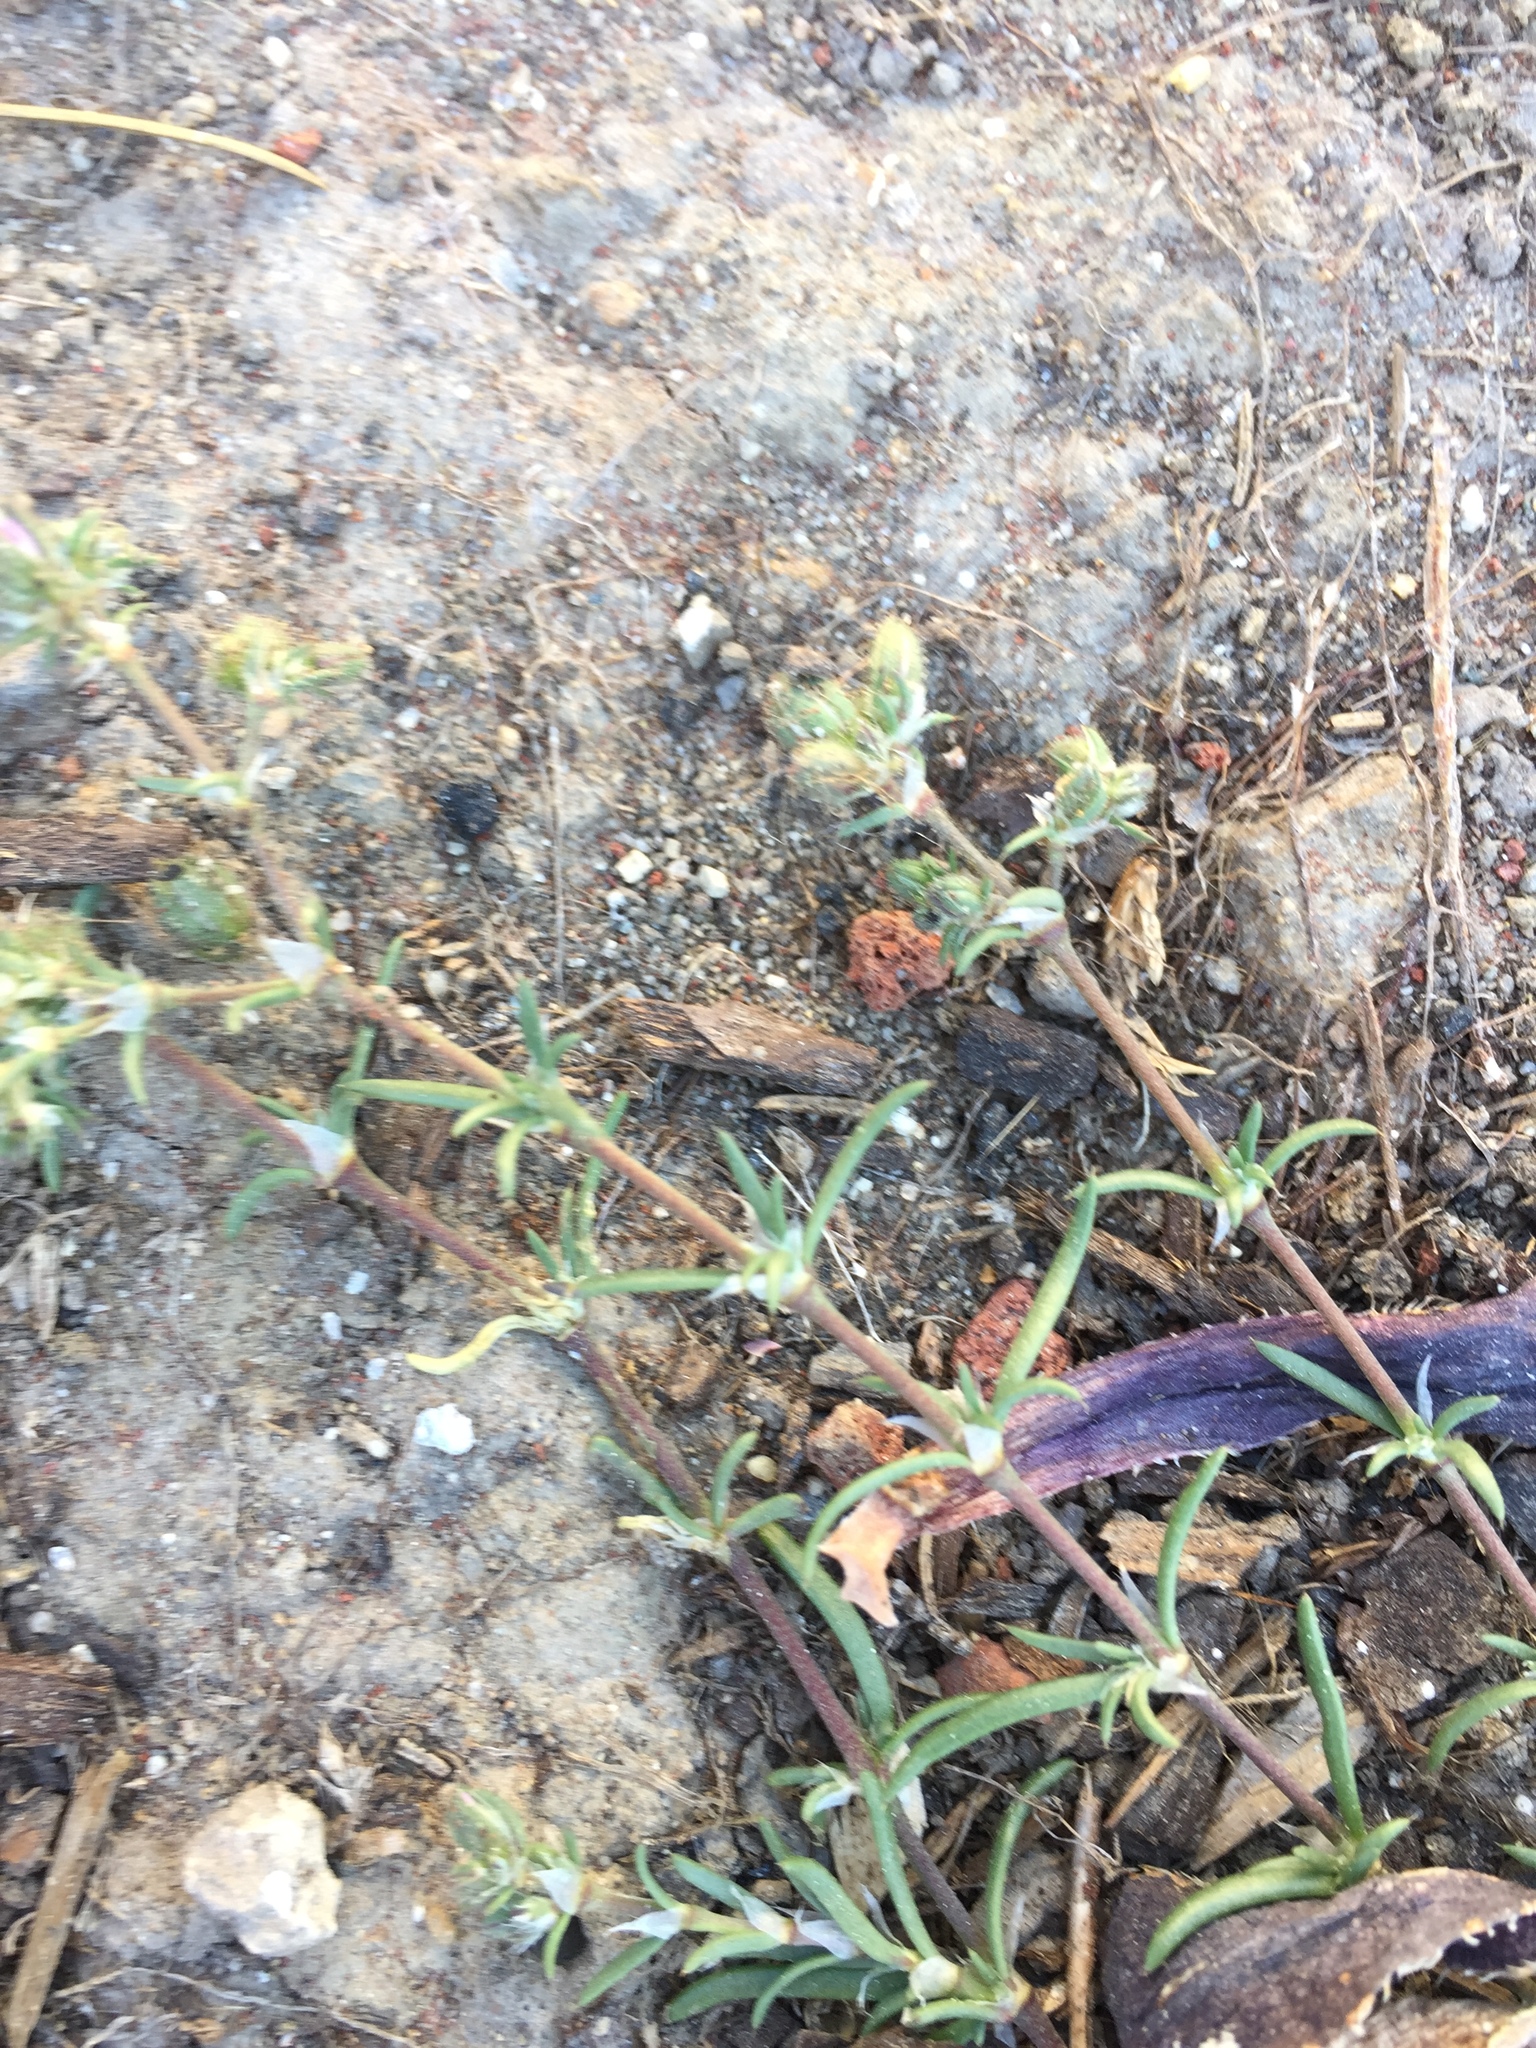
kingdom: Plantae
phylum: Tracheophyta
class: Magnoliopsida
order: Caryophyllales
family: Caryophyllaceae
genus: Spergularia
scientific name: Spergularia rubra
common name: Red sand-spurrey
